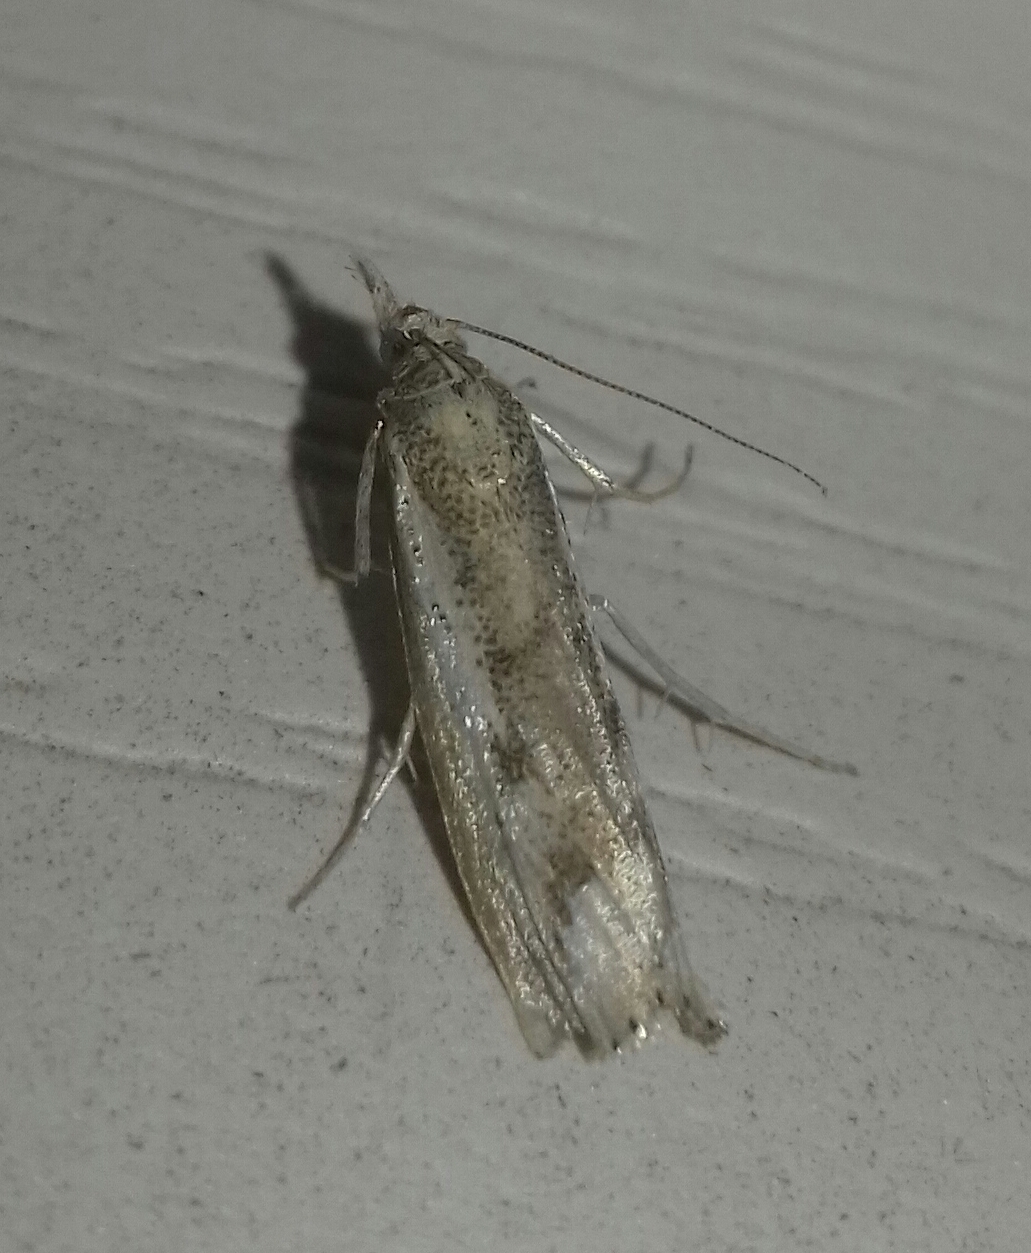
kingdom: Animalia
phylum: Arthropoda
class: Insecta
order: Lepidoptera
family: Crambidae
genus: Agriphila
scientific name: Agriphila tolli
